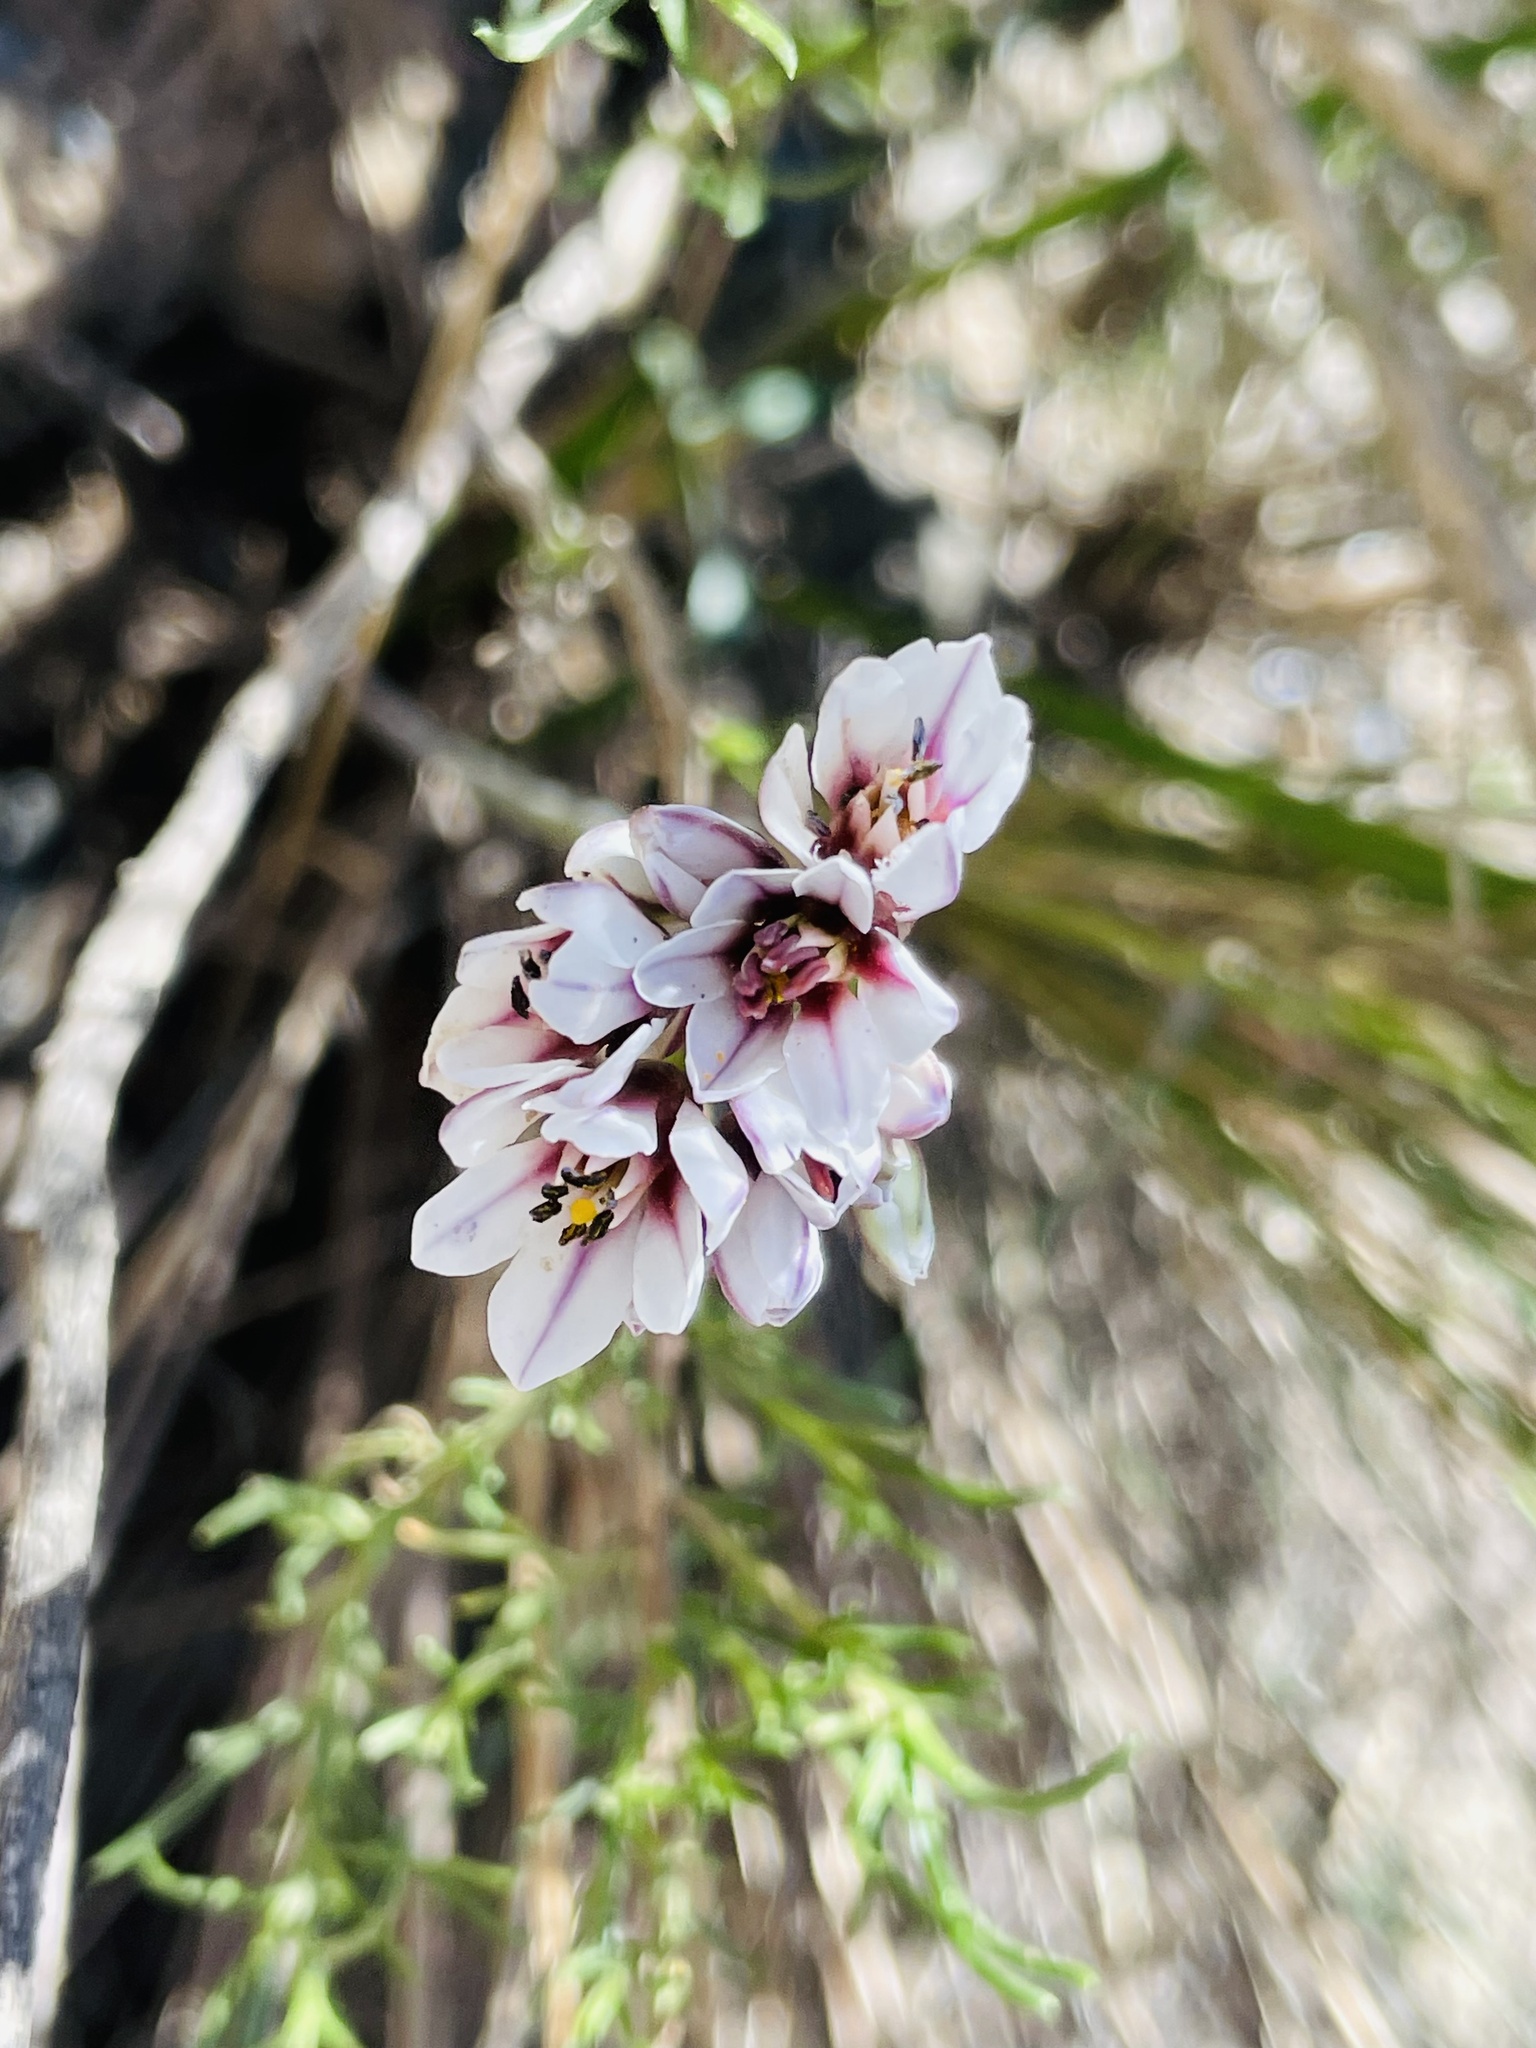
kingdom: Plantae
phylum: Tracheophyta
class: Liliopsida
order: Asparagales
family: Amaryllidaceae
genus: Nothoscordum
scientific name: Nothoscordum andicola
